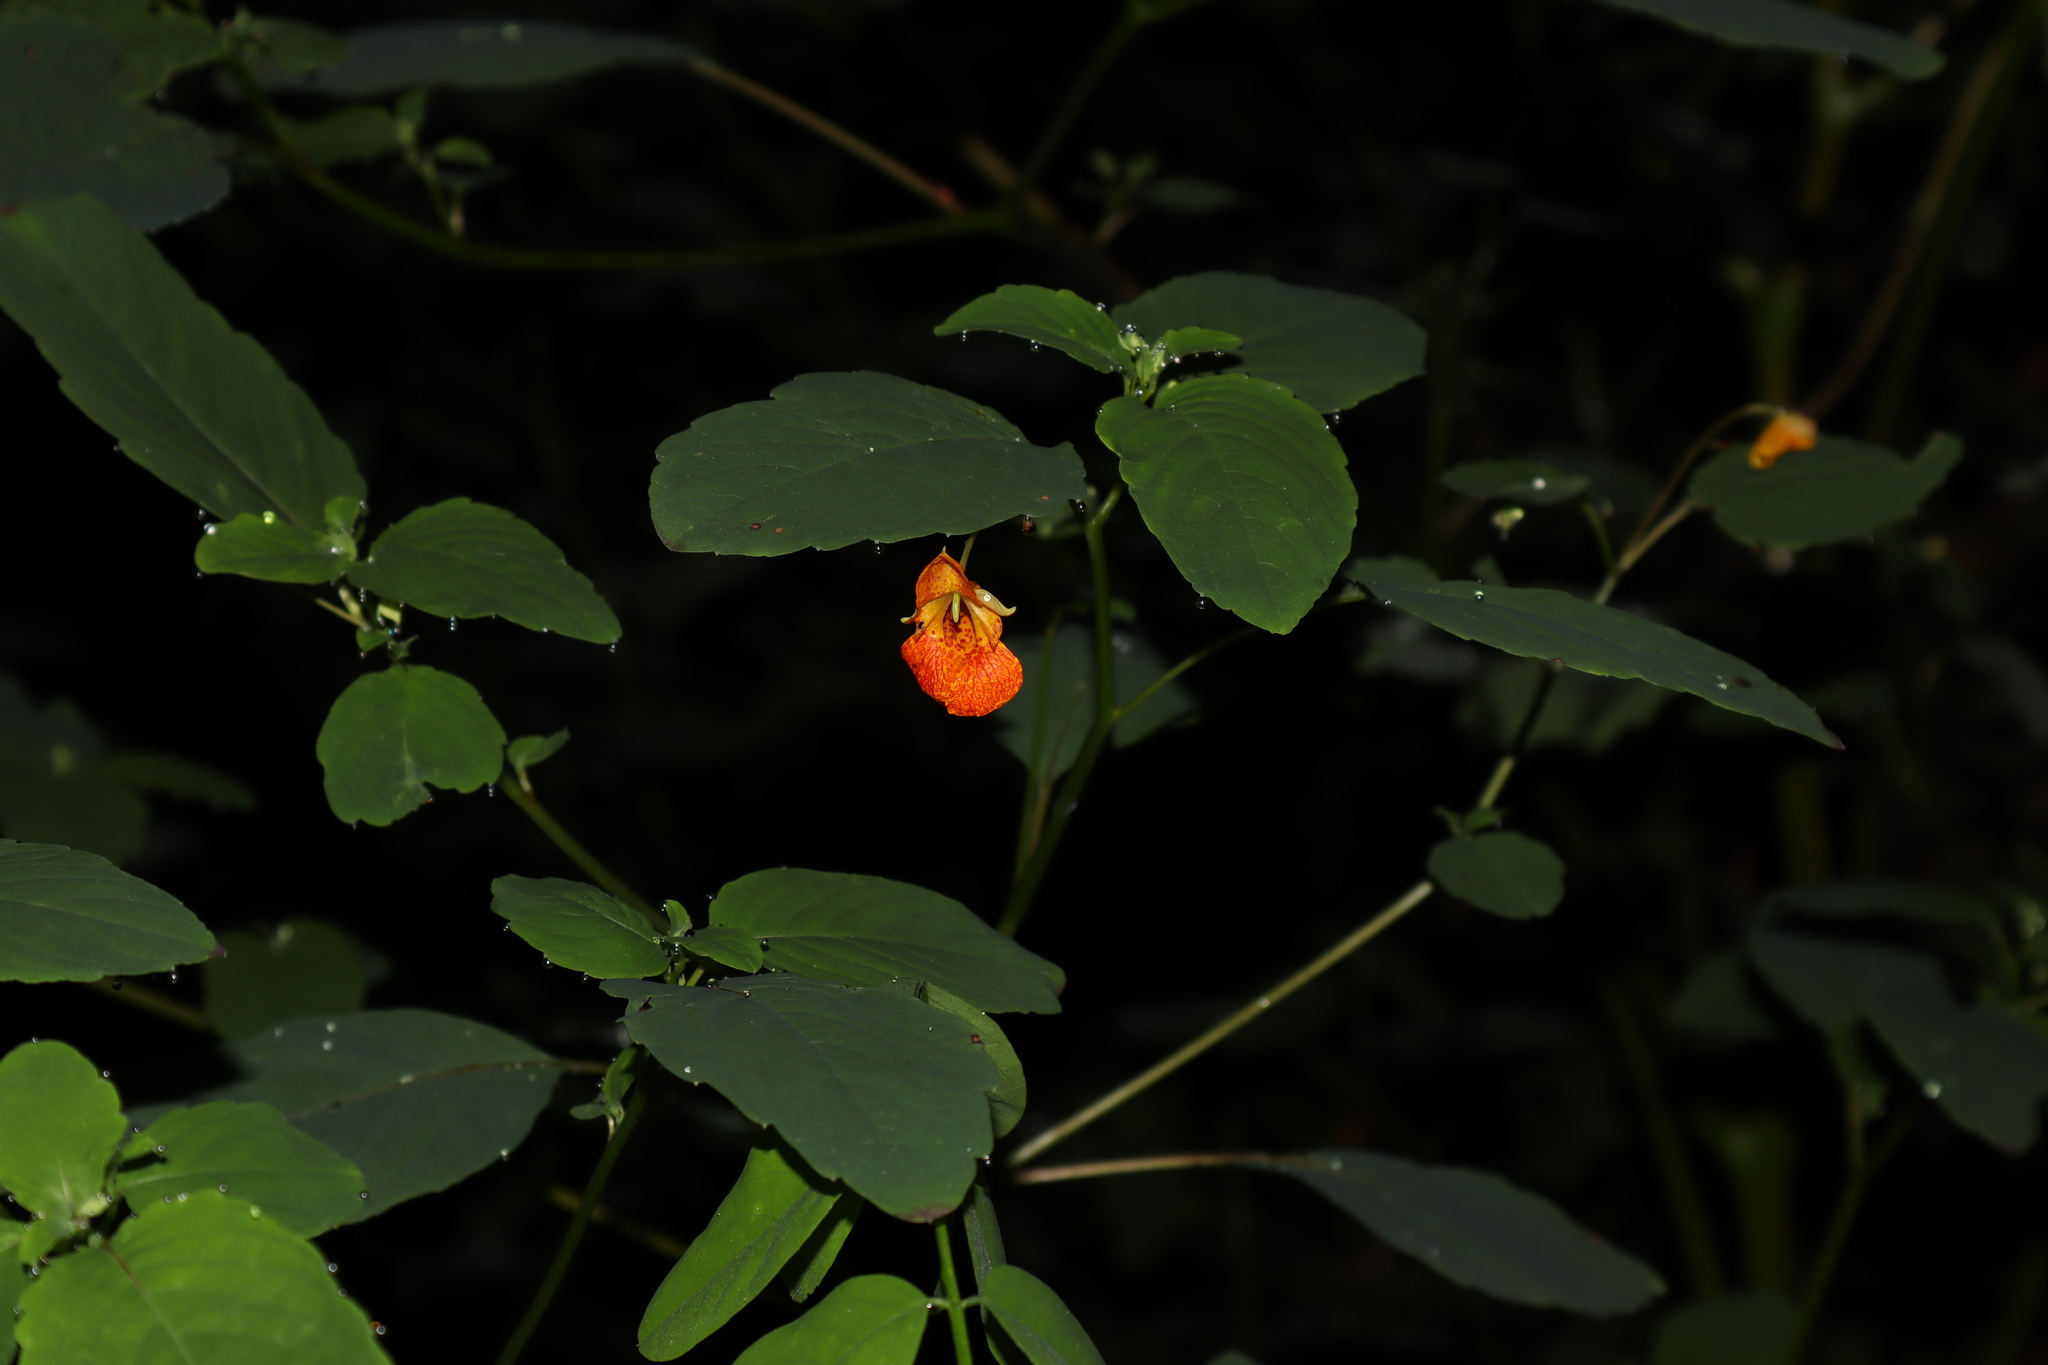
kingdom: Plantae
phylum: Tracheophyta
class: Magnoliopsida
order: Ericales
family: Balsaminaceae
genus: Impatiens
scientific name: Impatiens capensis
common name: Orange balsam
